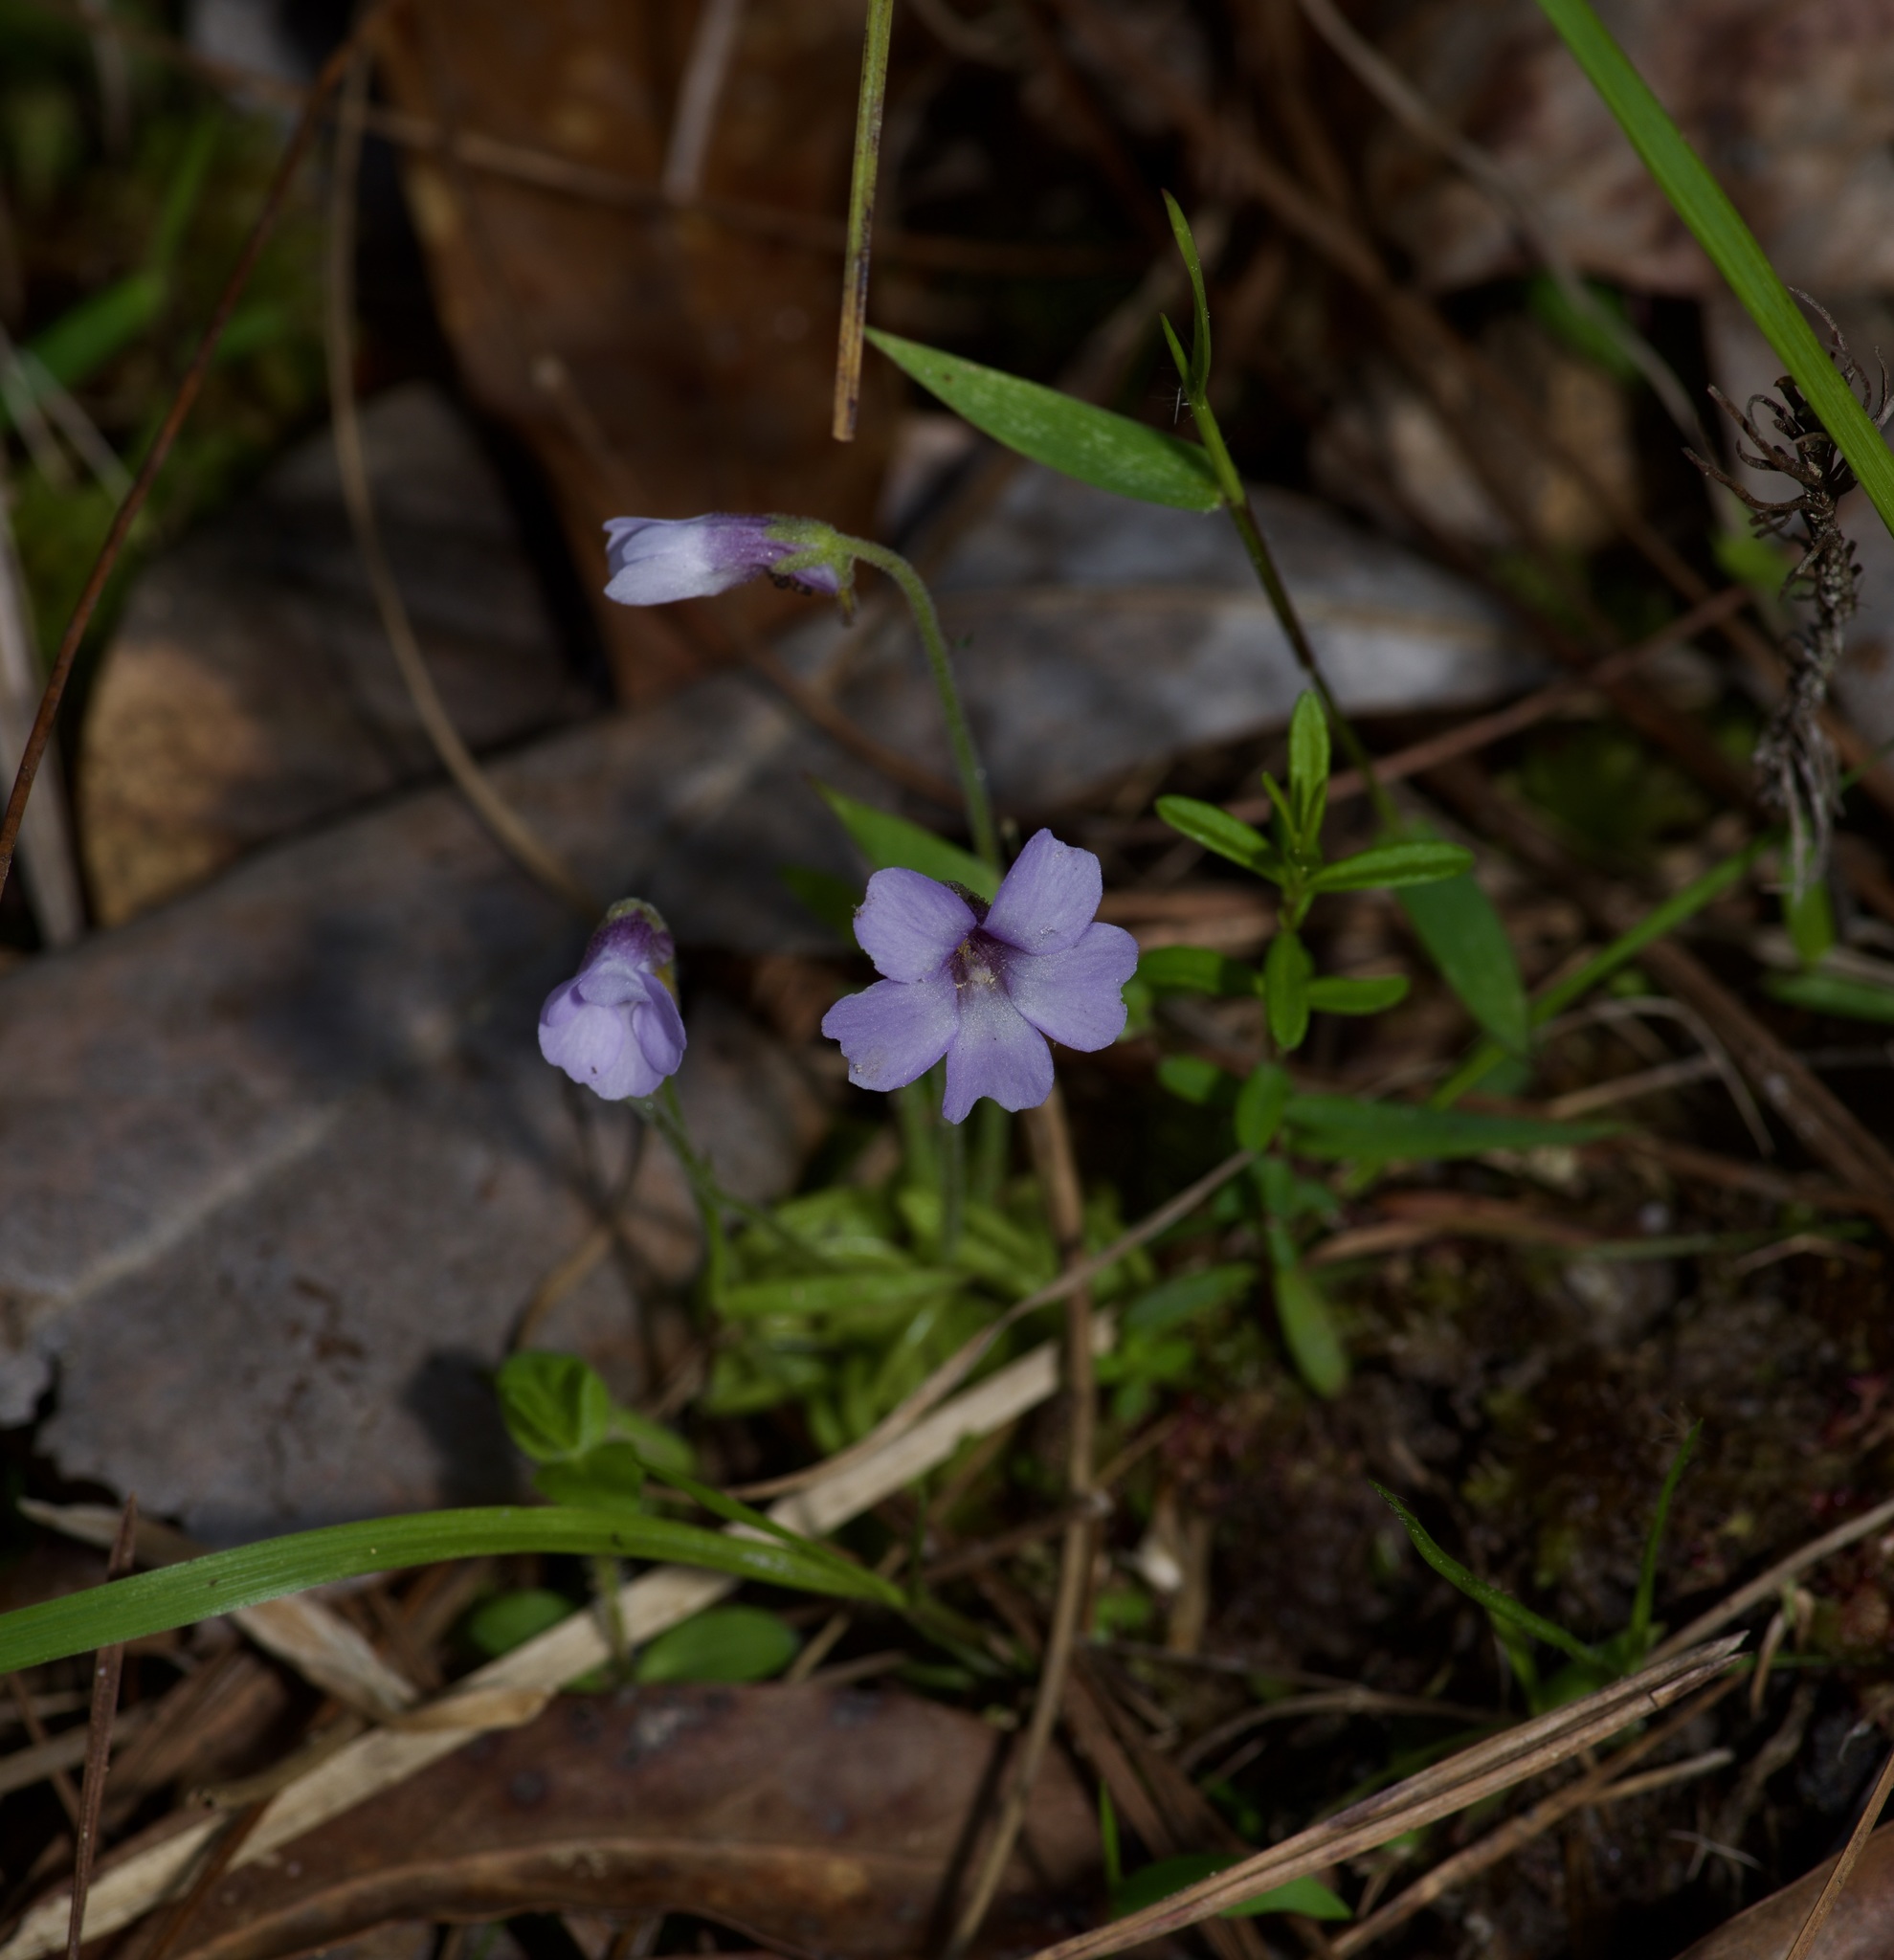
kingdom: Plantae
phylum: Tracheophyta
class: Magnoliopsida
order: Lamiales
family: Lentibulariaceae
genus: Pinguicula
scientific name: Pinguicula pumila
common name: Small butterwort
